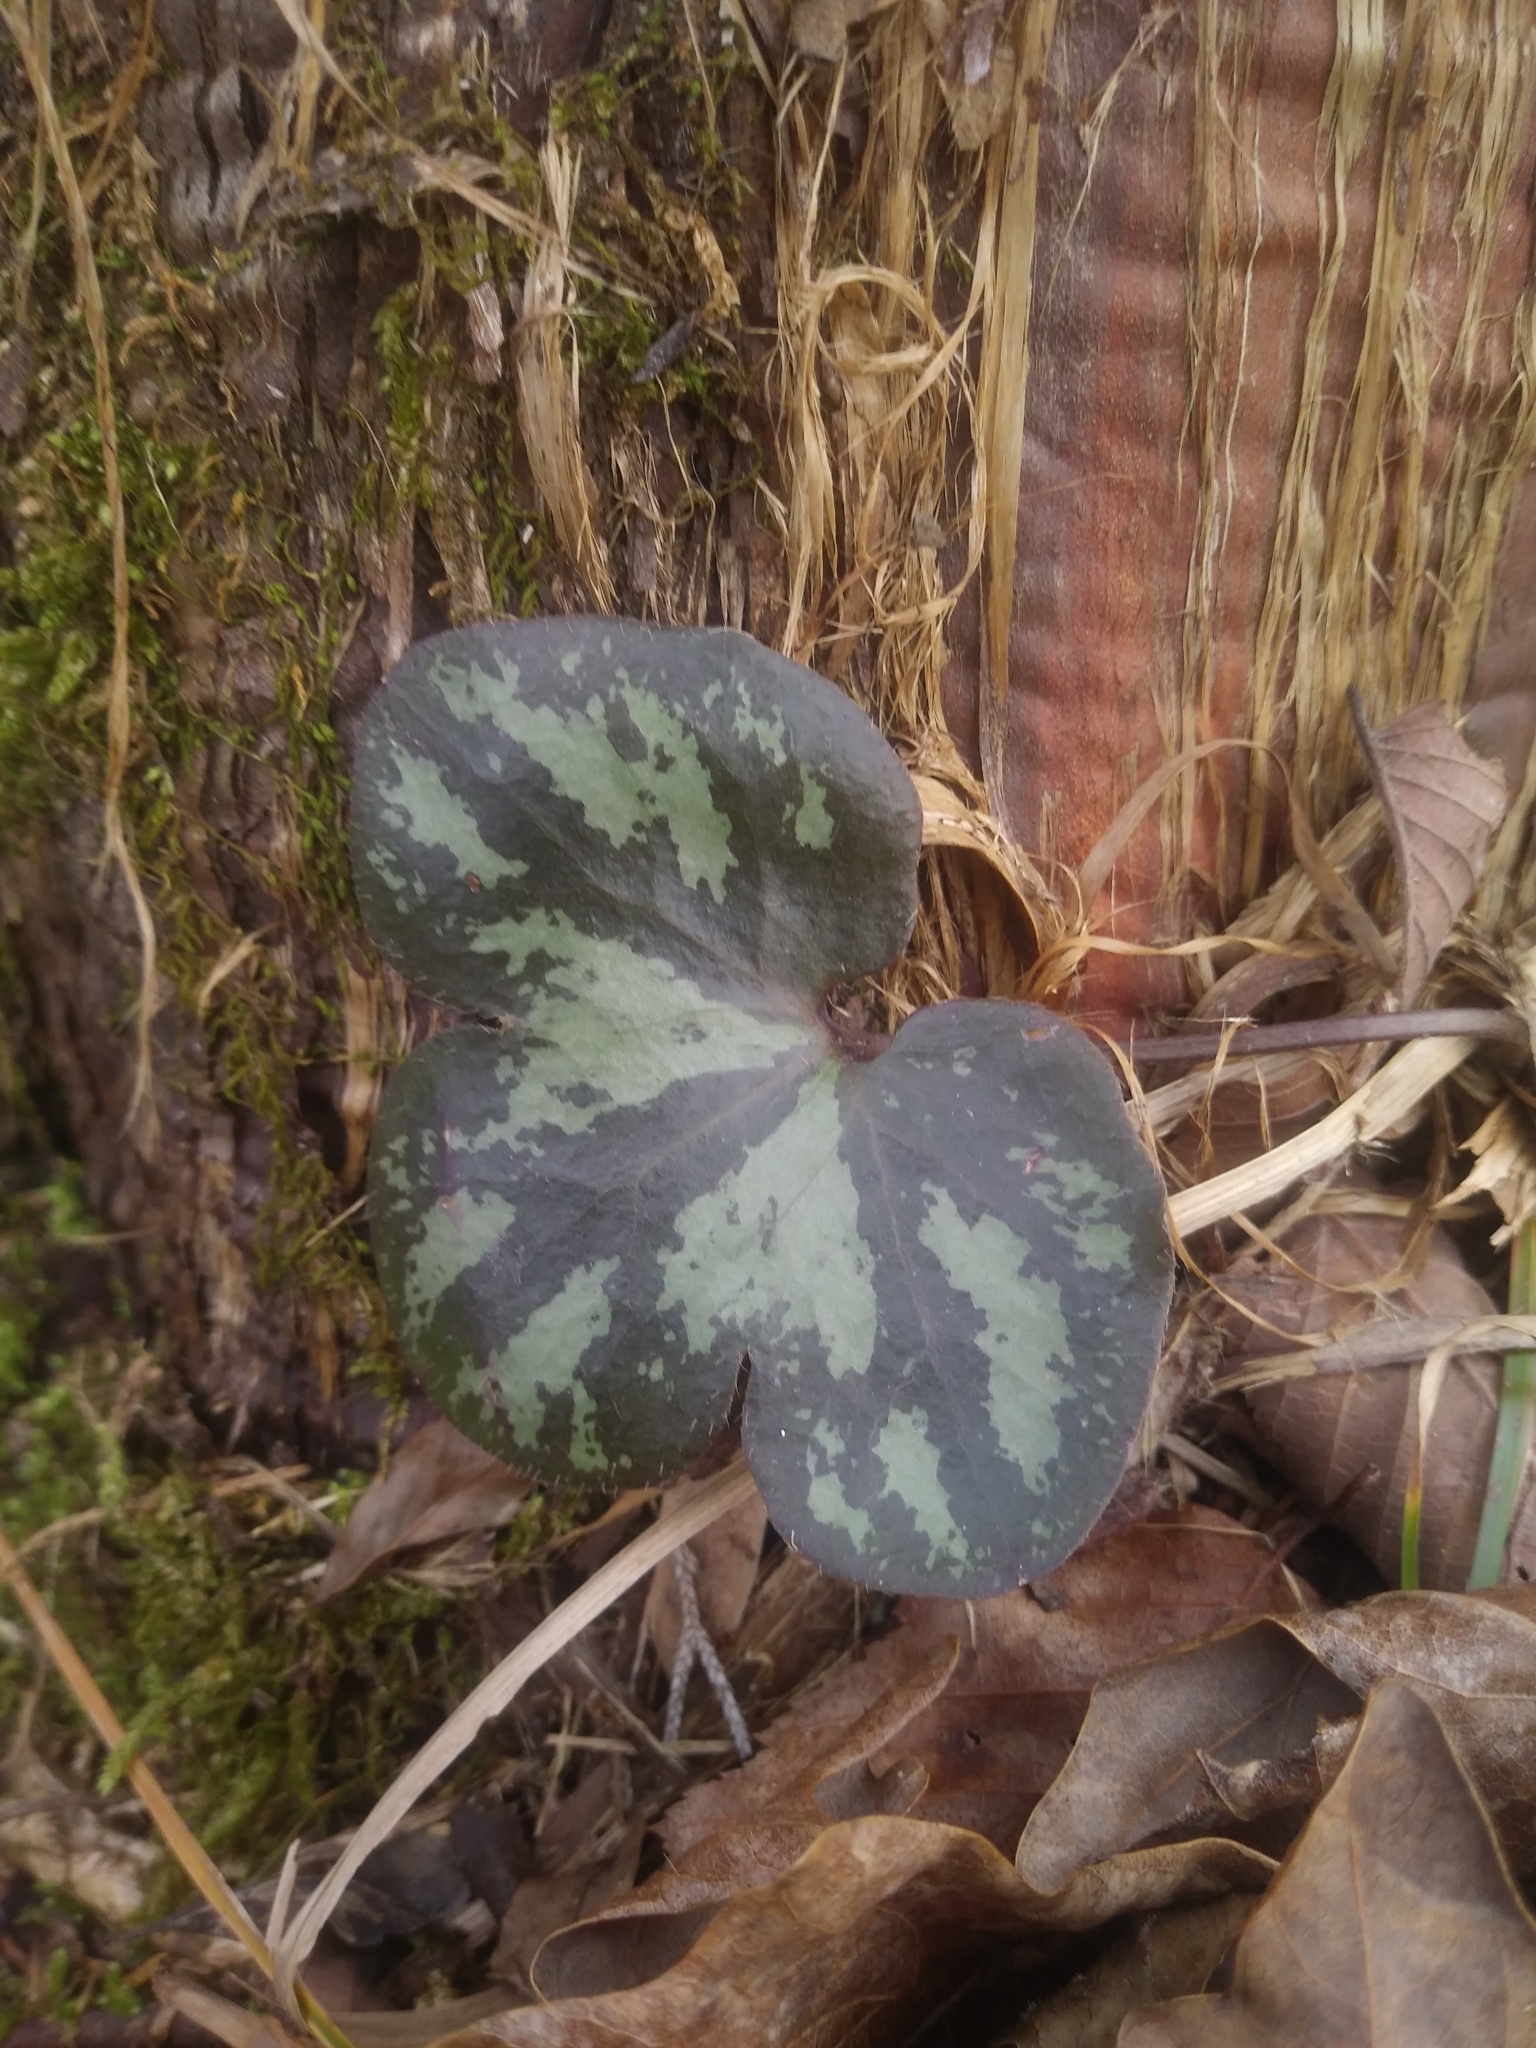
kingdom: Plantae
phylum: Tracheophyta
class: Magnoliopsida
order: Ranunculales
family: Ranunculaceae
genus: Hepatica
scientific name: Hepatica americana
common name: American hepatica
